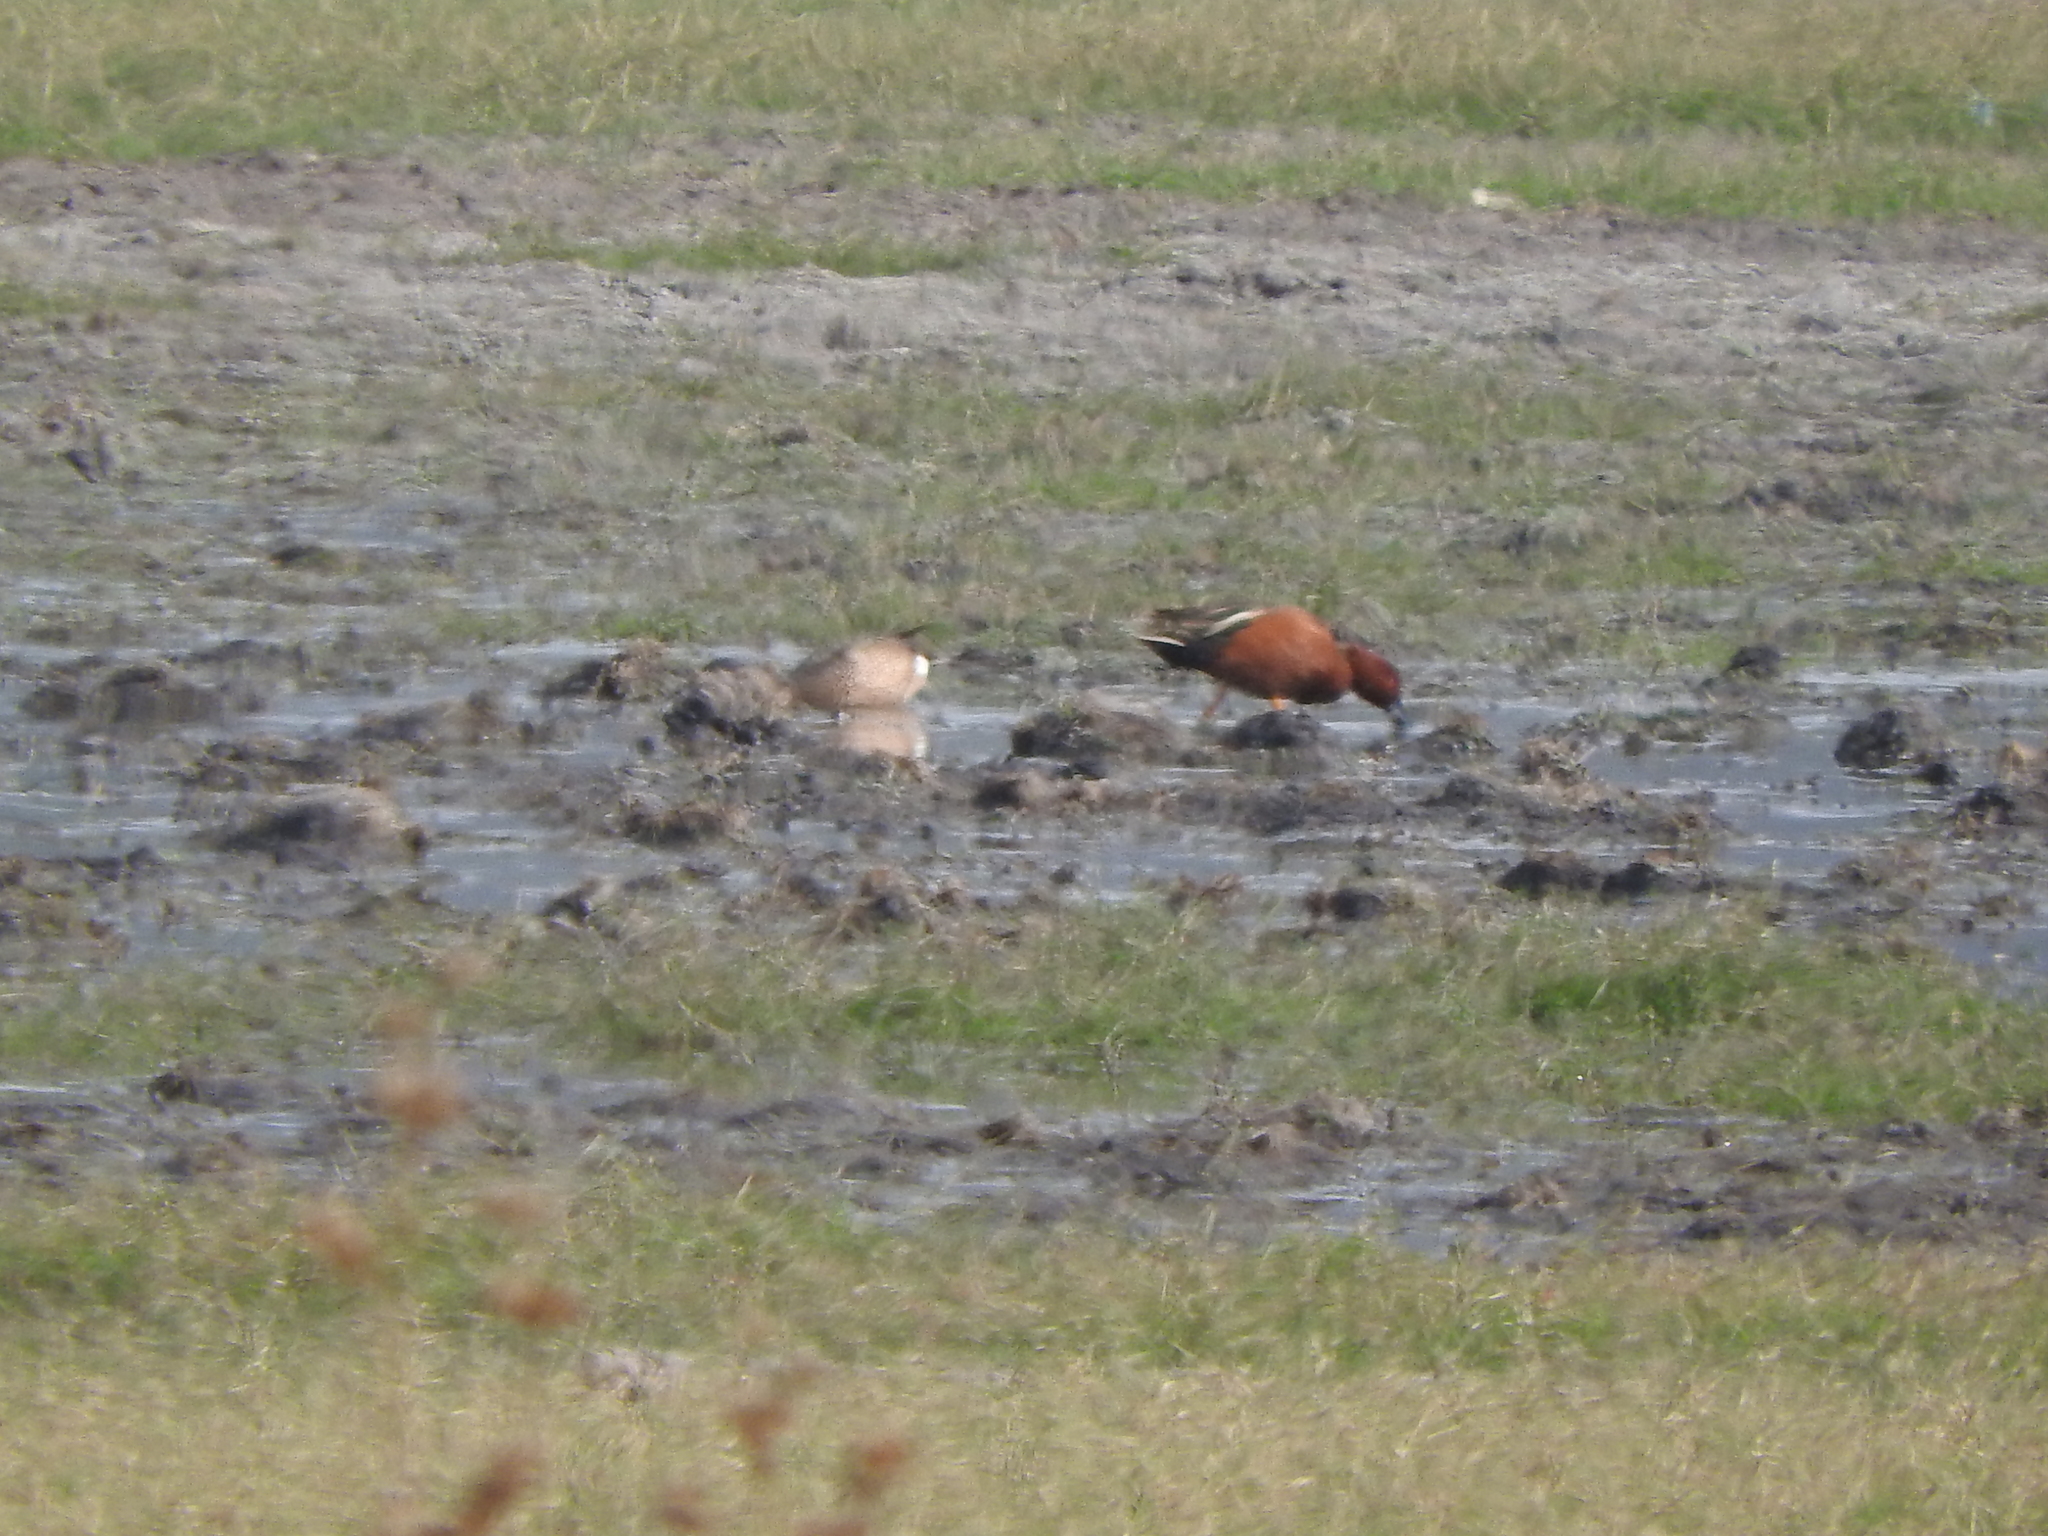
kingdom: Animalia
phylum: Chordata
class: Aves
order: Anseriformes
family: Anatidae
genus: Spatula
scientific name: Spatula cyanoptera
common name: Cinnamon teal
